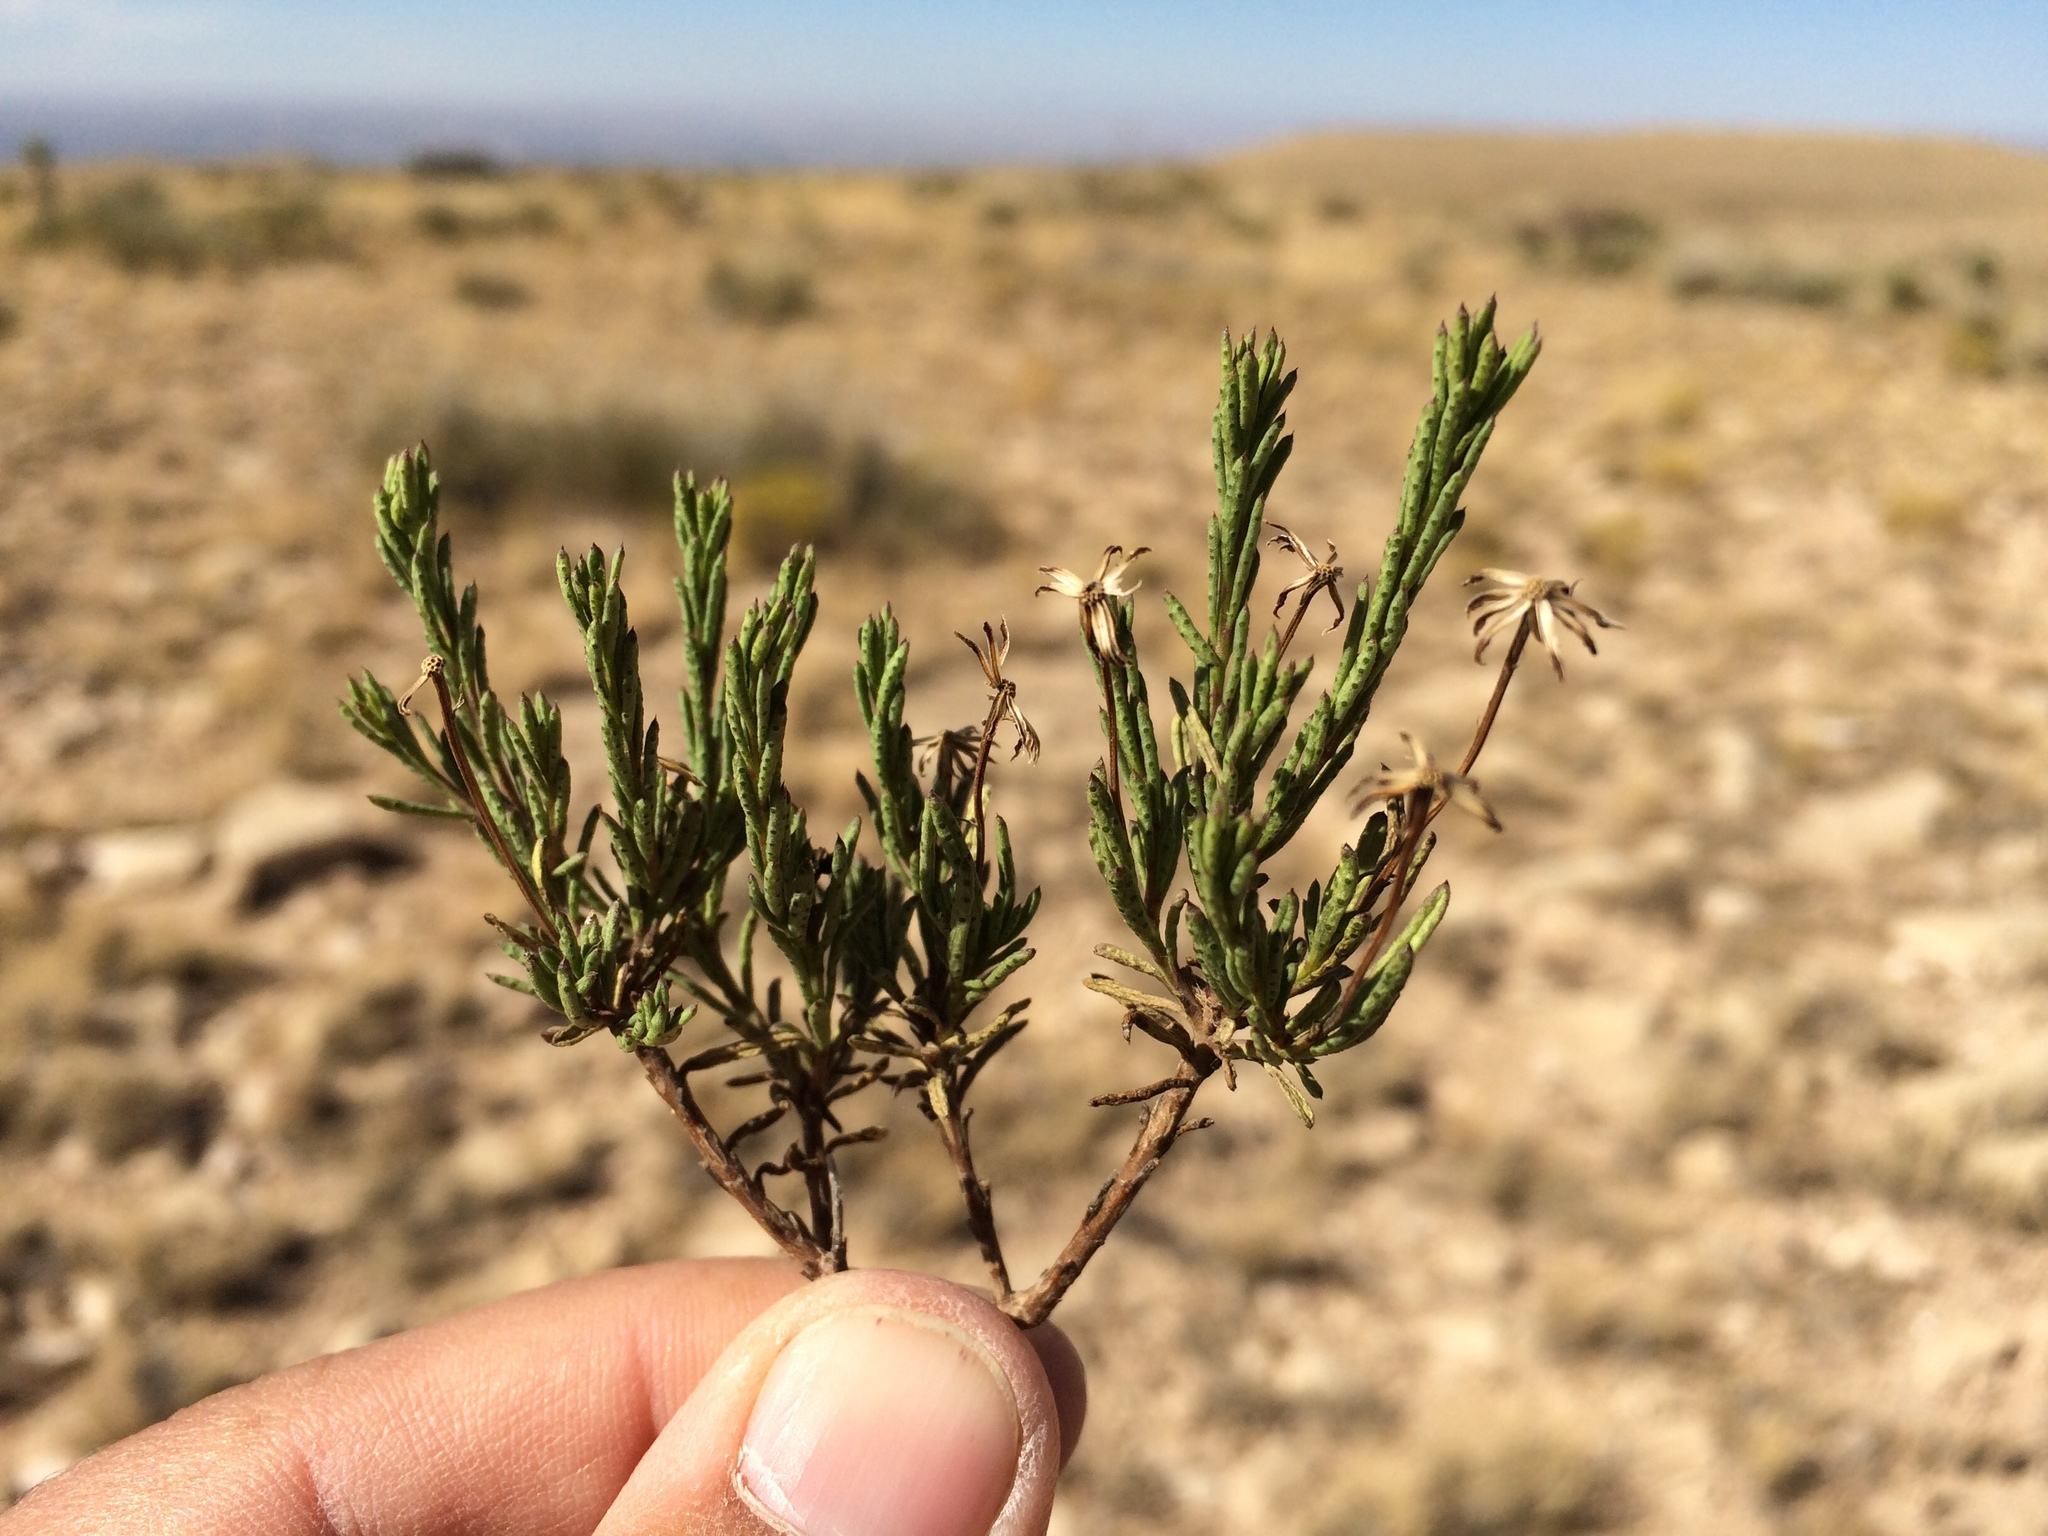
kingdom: Plantae
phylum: Tracheophyta
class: Magnoliopsida
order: Asterales
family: Asteraceae
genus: Chrysactinia
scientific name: Chrysactinia mexicana
